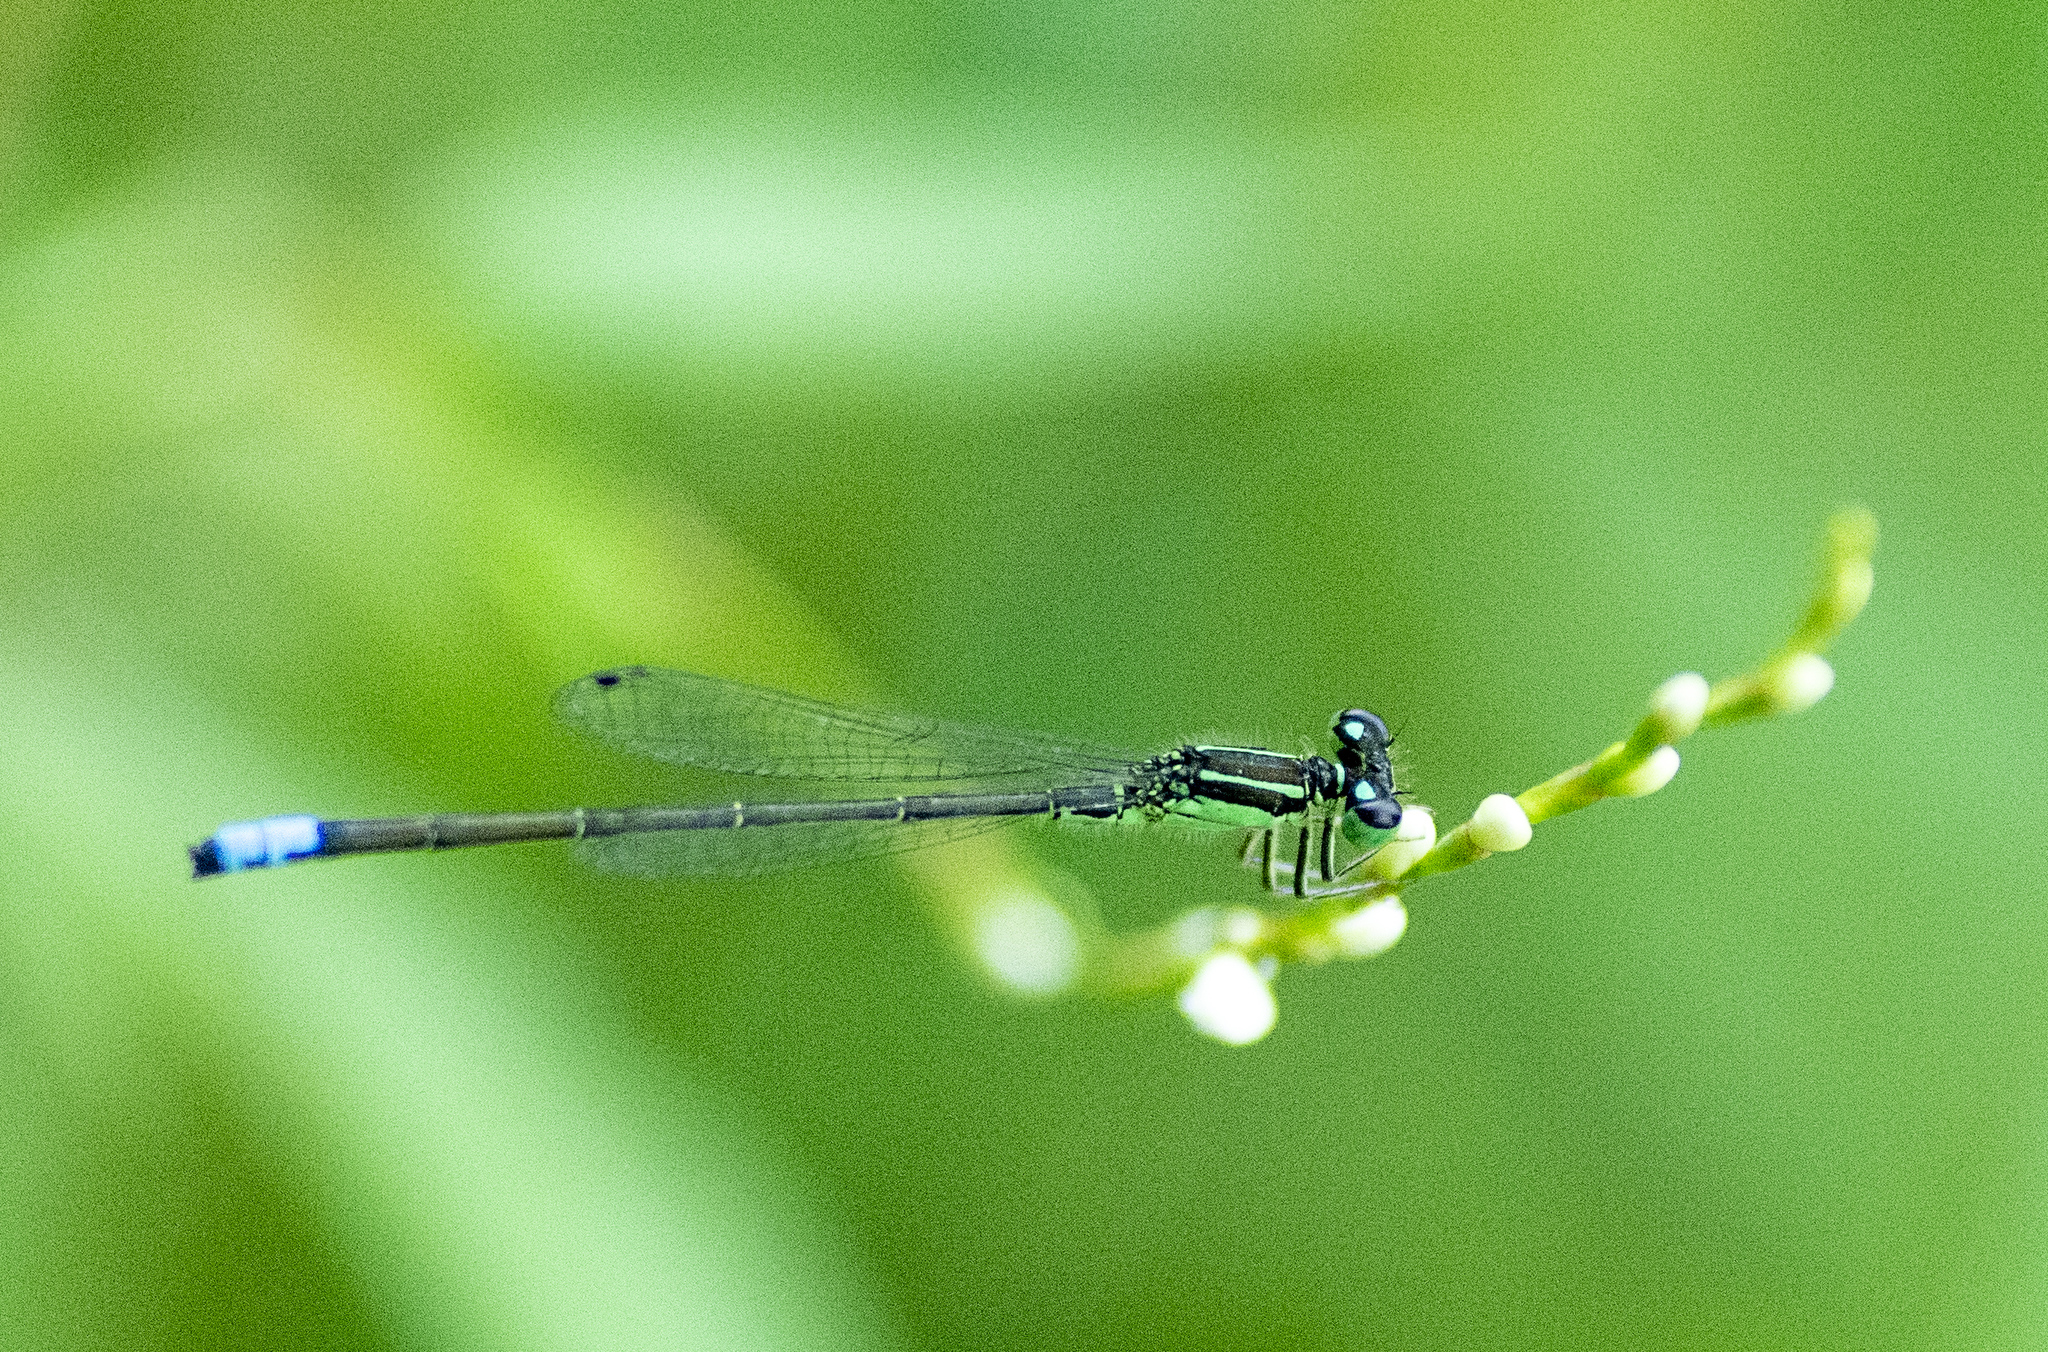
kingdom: Animalia
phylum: Arthropoda
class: Insecta
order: Odonata
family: Coenagrionidae
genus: Ischnura
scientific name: Ischnura verticalis
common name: Eastern forktail
